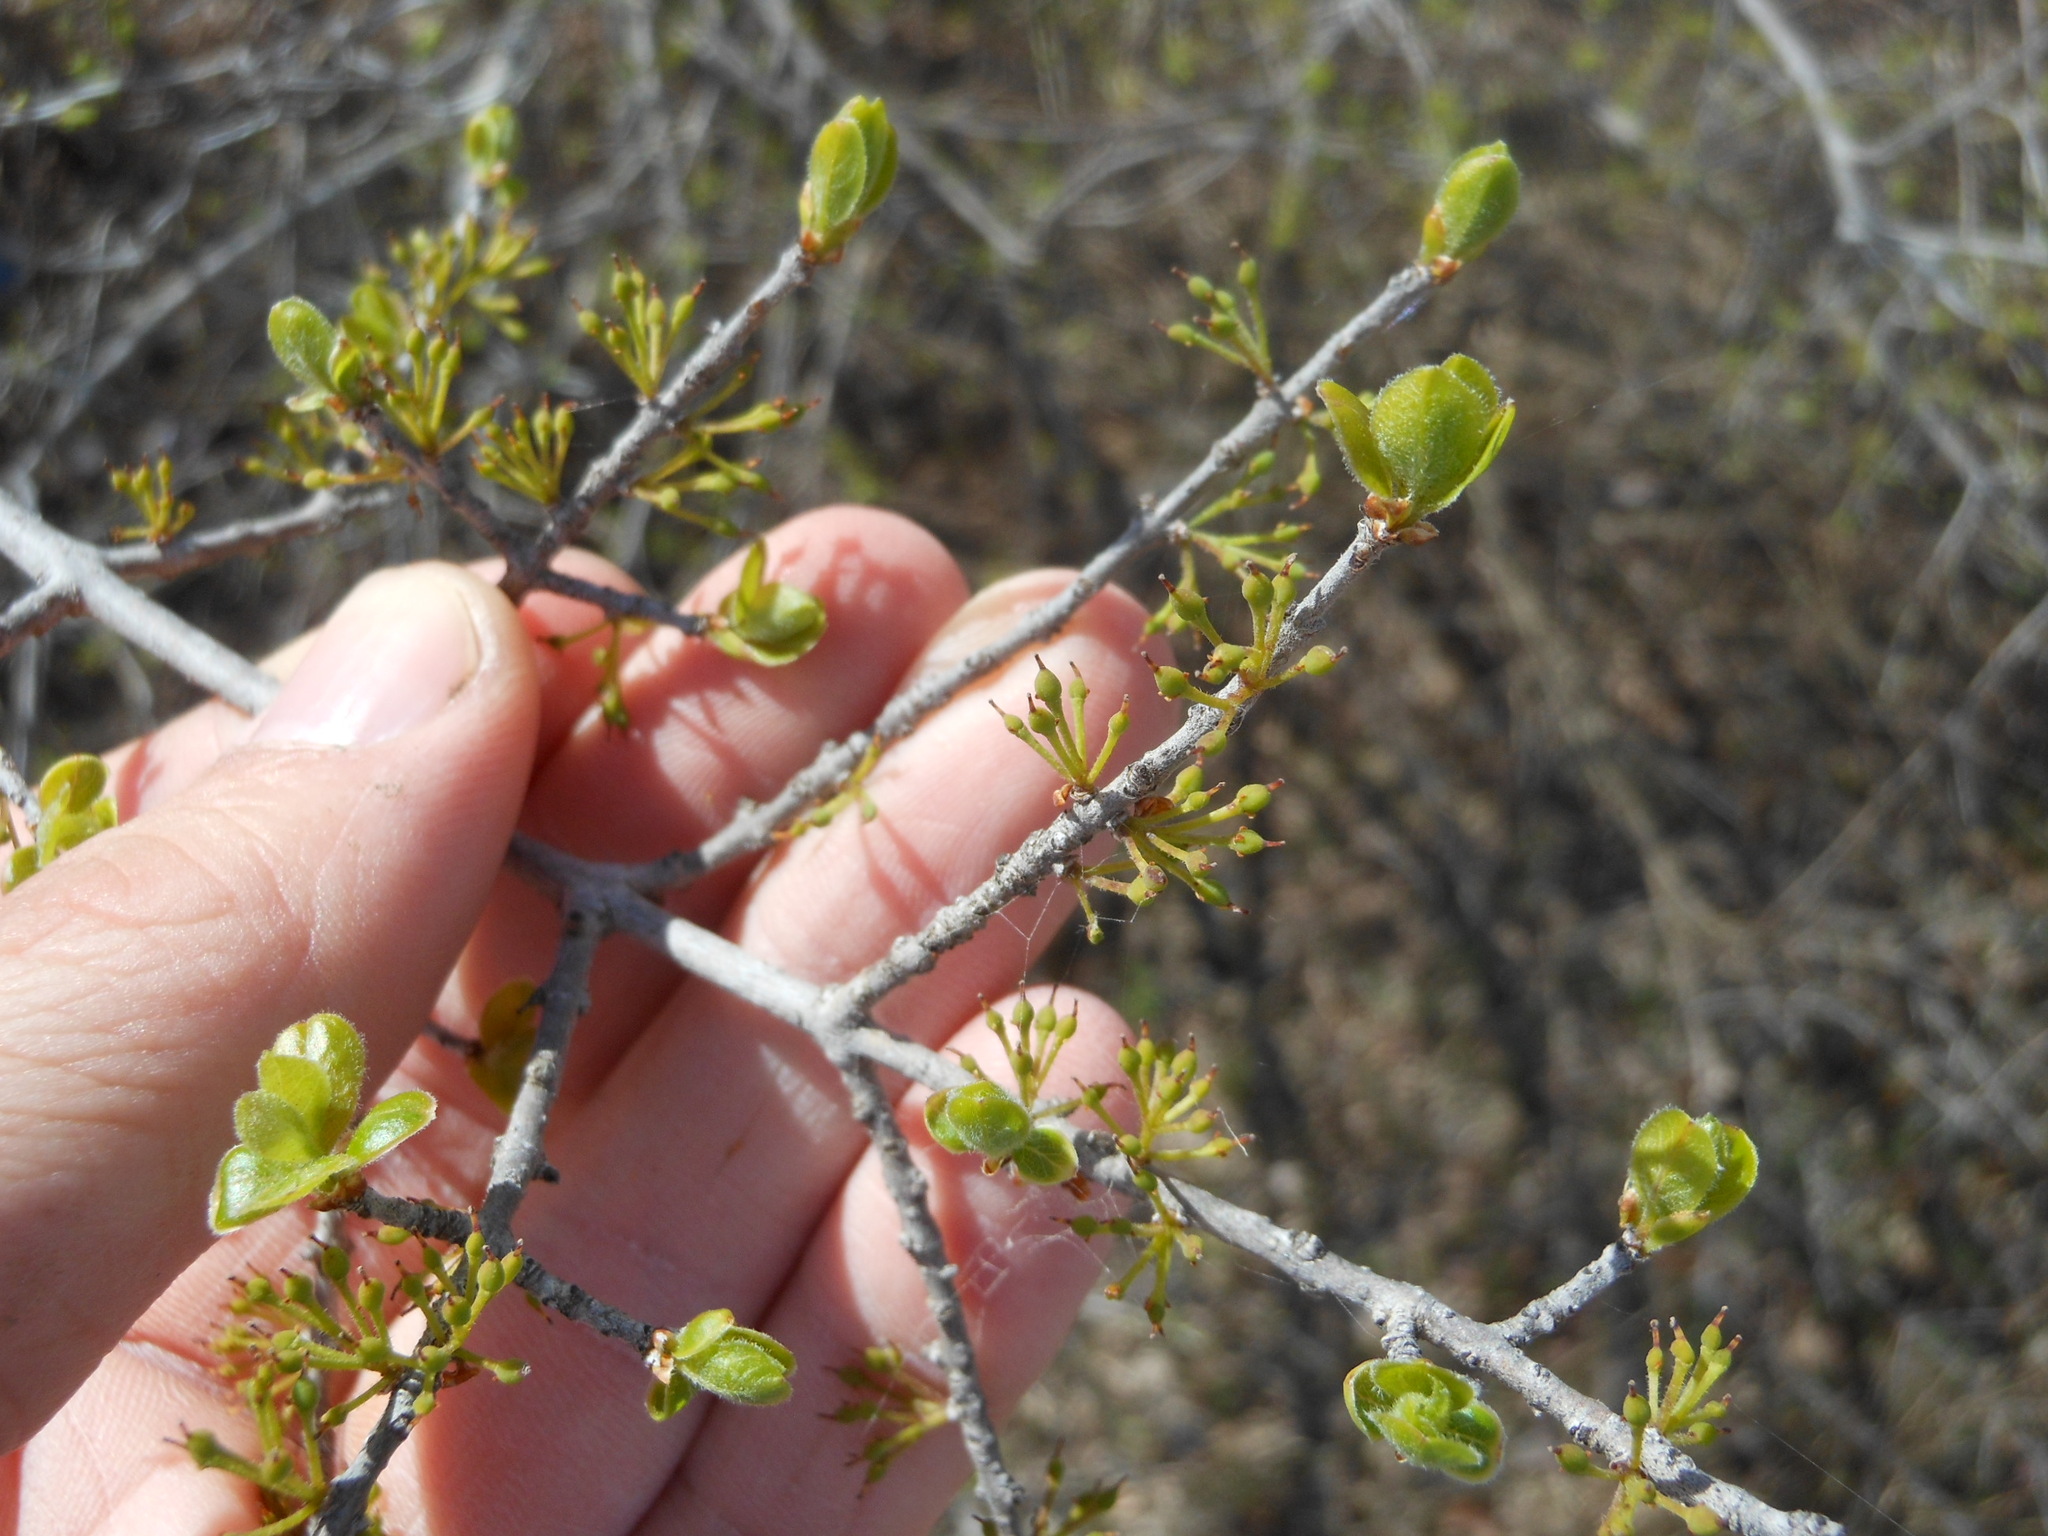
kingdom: Plantae
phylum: Tracheophyta
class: Magnoliopsida
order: Lamiales
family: Oleaceae
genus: Forestiera
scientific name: Forestiera pubescens
